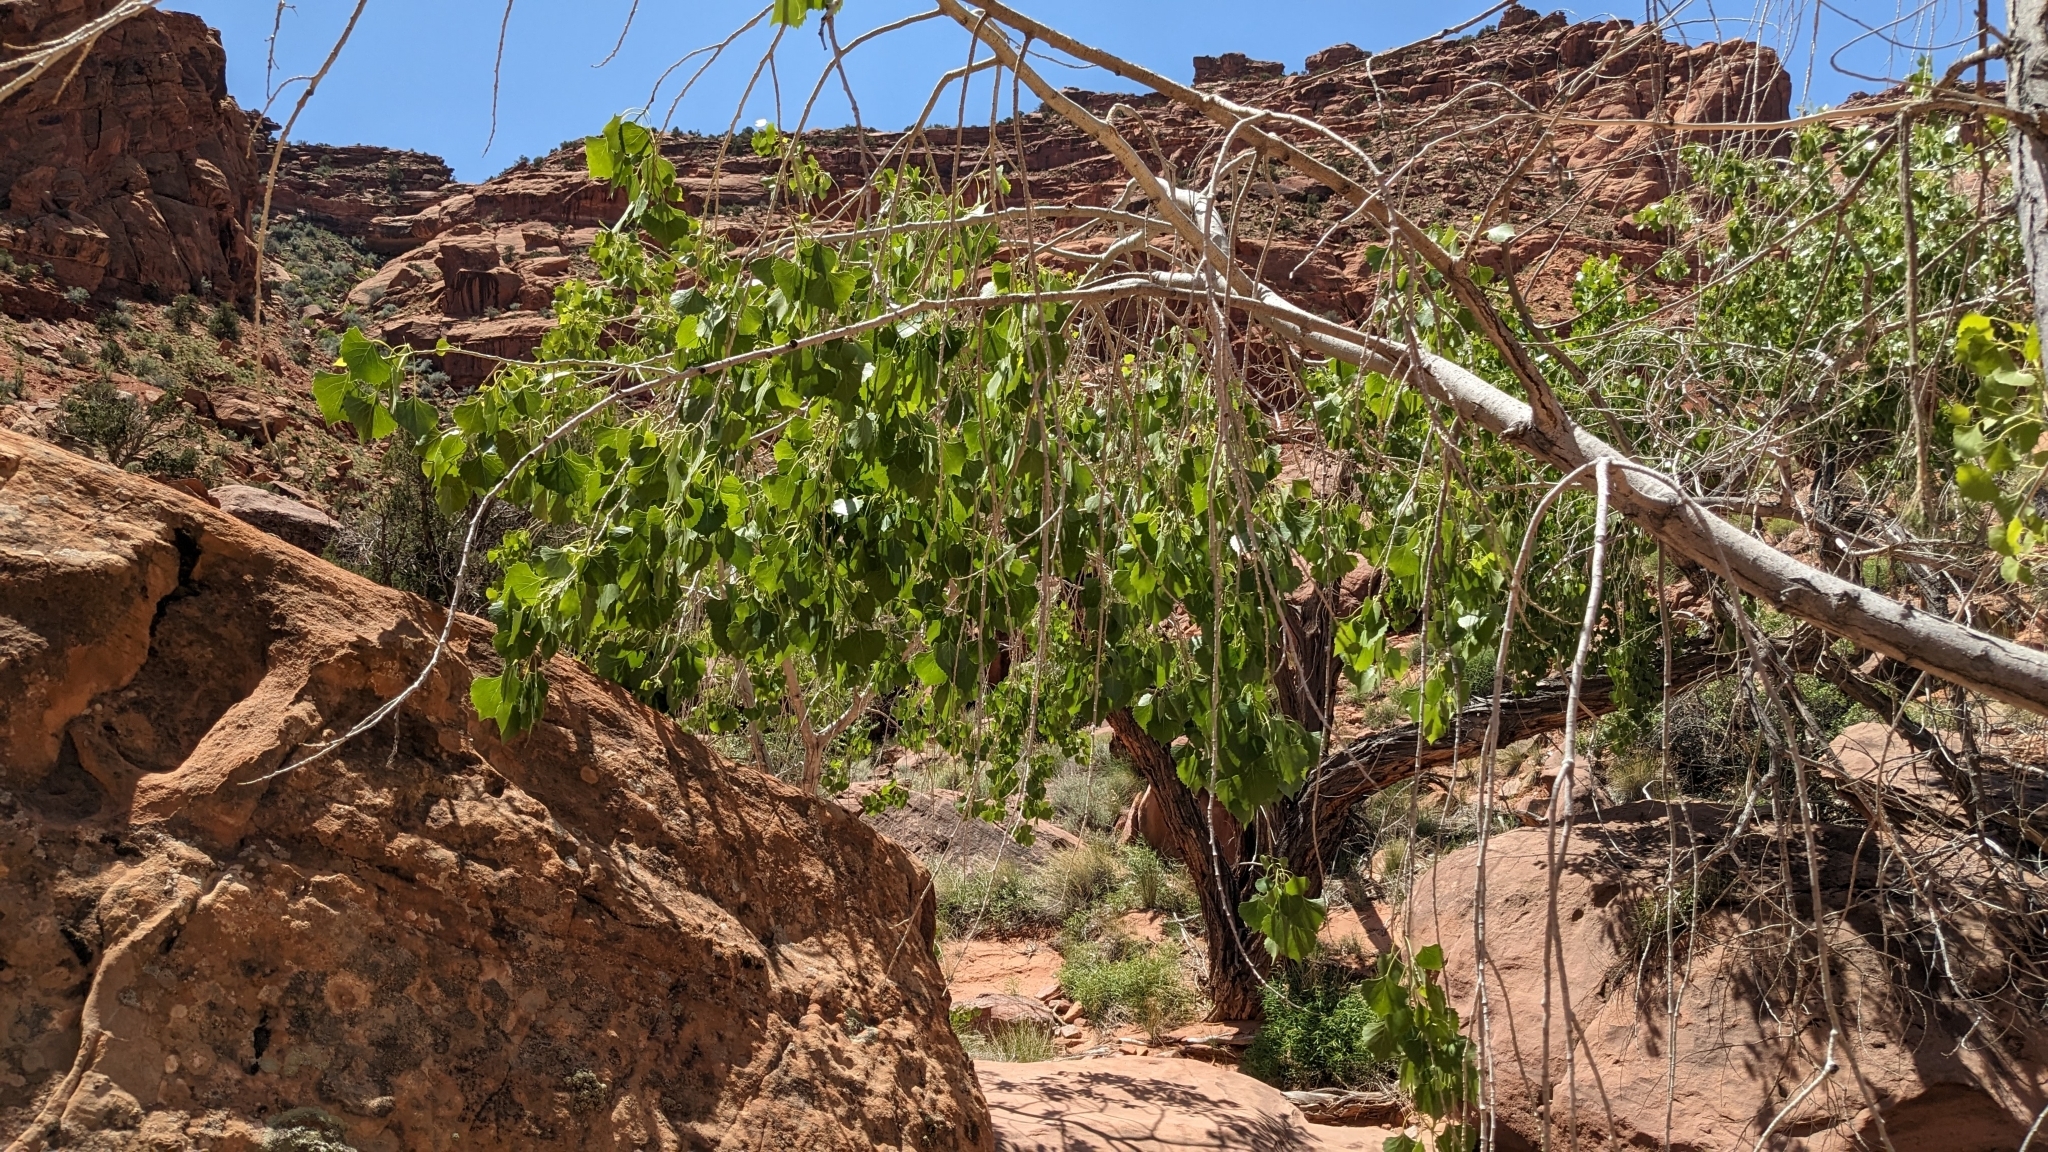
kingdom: Plantae
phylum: Tracheophyta
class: Magnoliopsida
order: Malpighiales
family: Salicaceae
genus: Populus
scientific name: Populus fremontii
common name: Fremont's cottonwood
